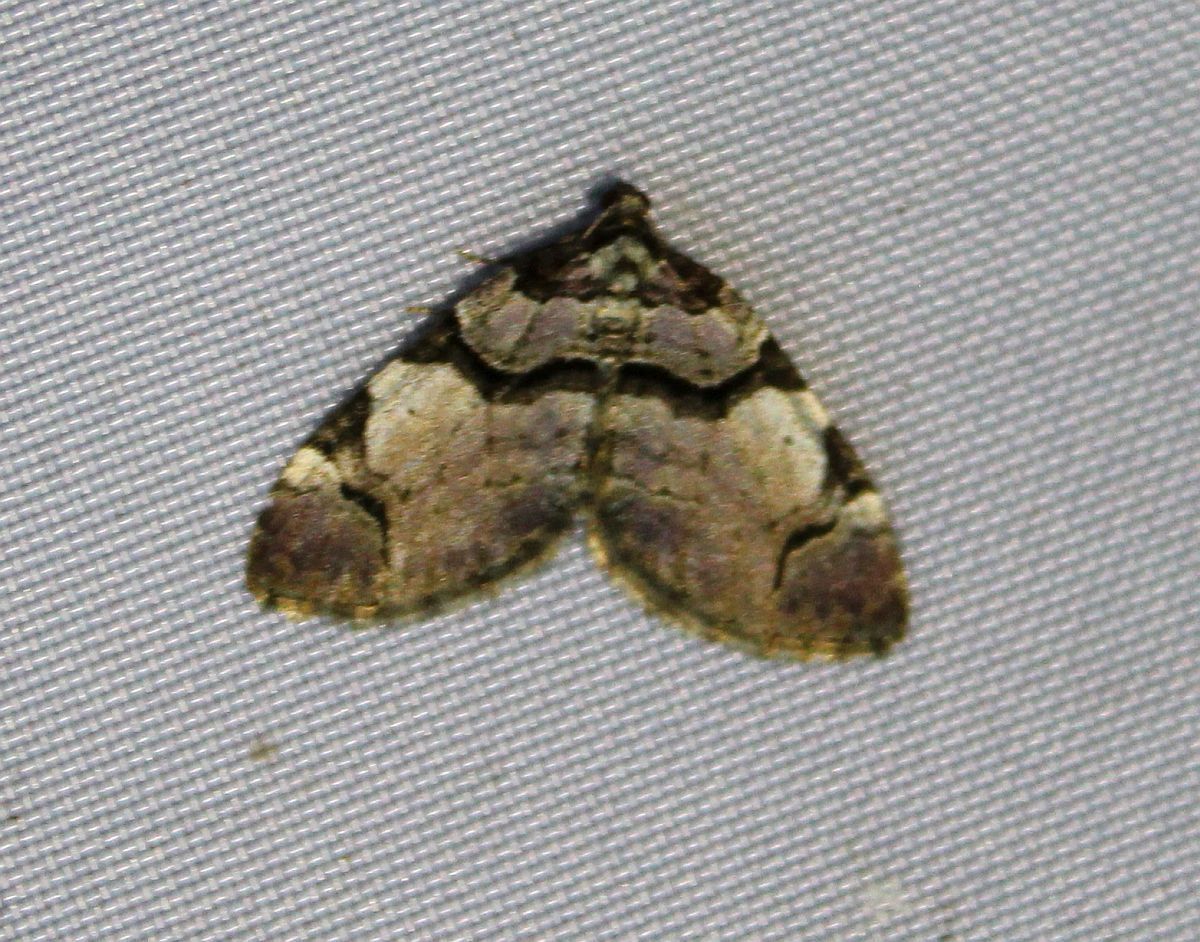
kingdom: Animalia
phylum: Arthropoda
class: Insecta
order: Lepidoptera
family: Geometridae
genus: Anticlea
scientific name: Anticlea derivata
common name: Streamer
